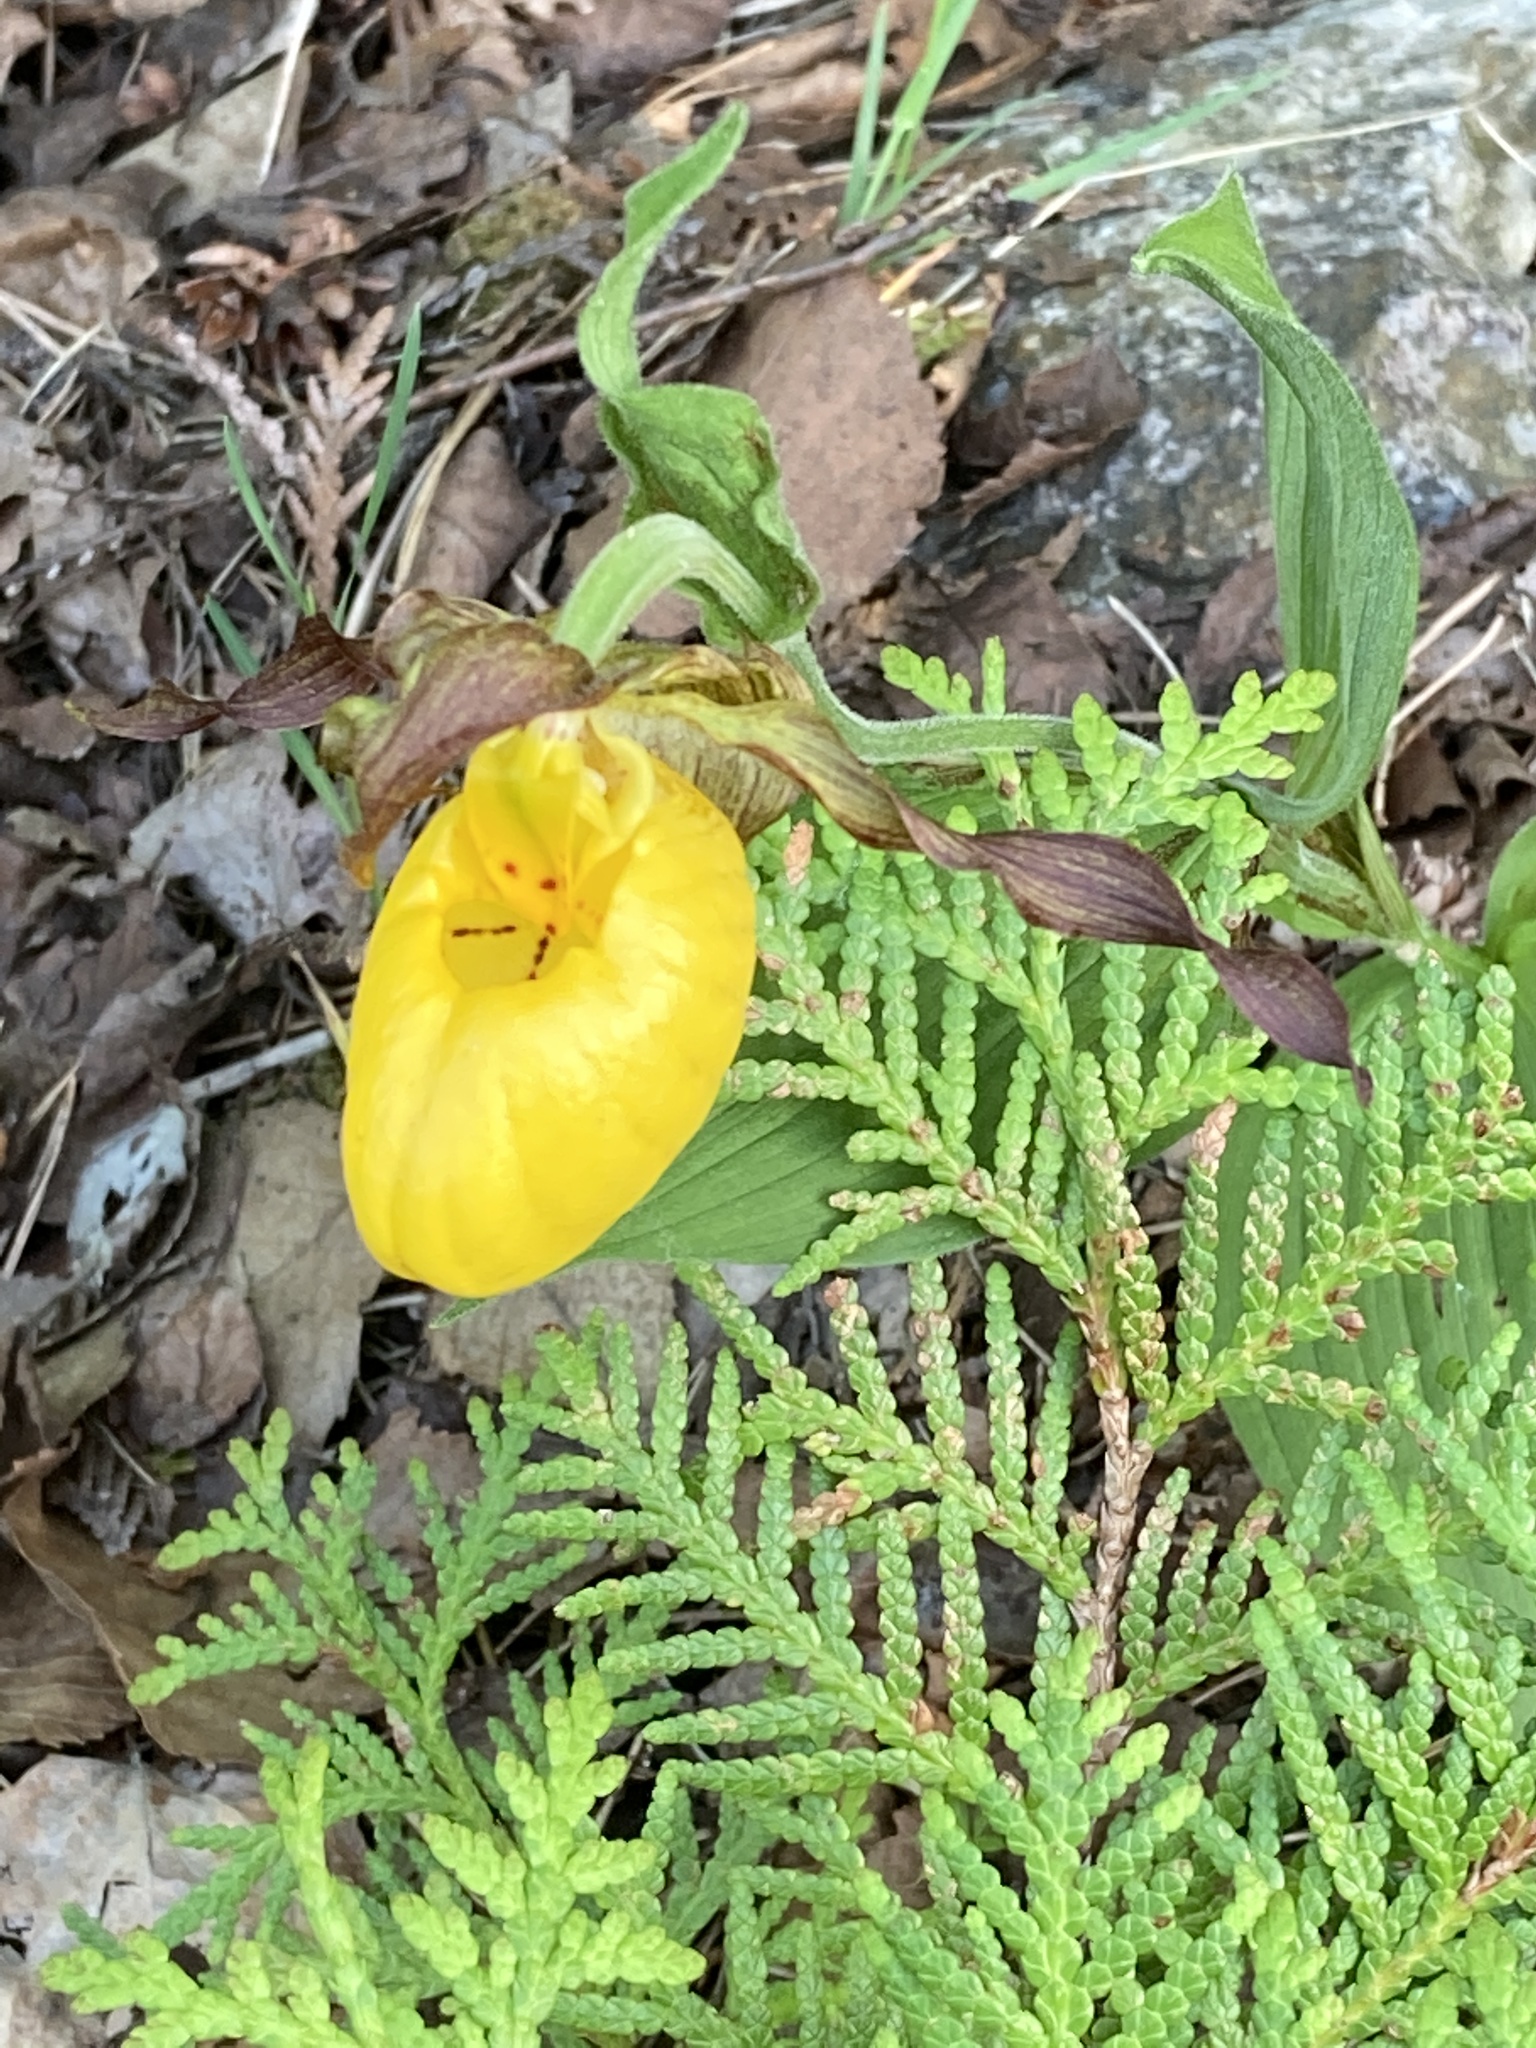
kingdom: Plantae
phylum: Tracheophyta
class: Liliopsida
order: Asparagales
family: Orchidaceae
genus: Cypripedium
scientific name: Cypripedium parviflorum
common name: American yellow lady's-slipper
